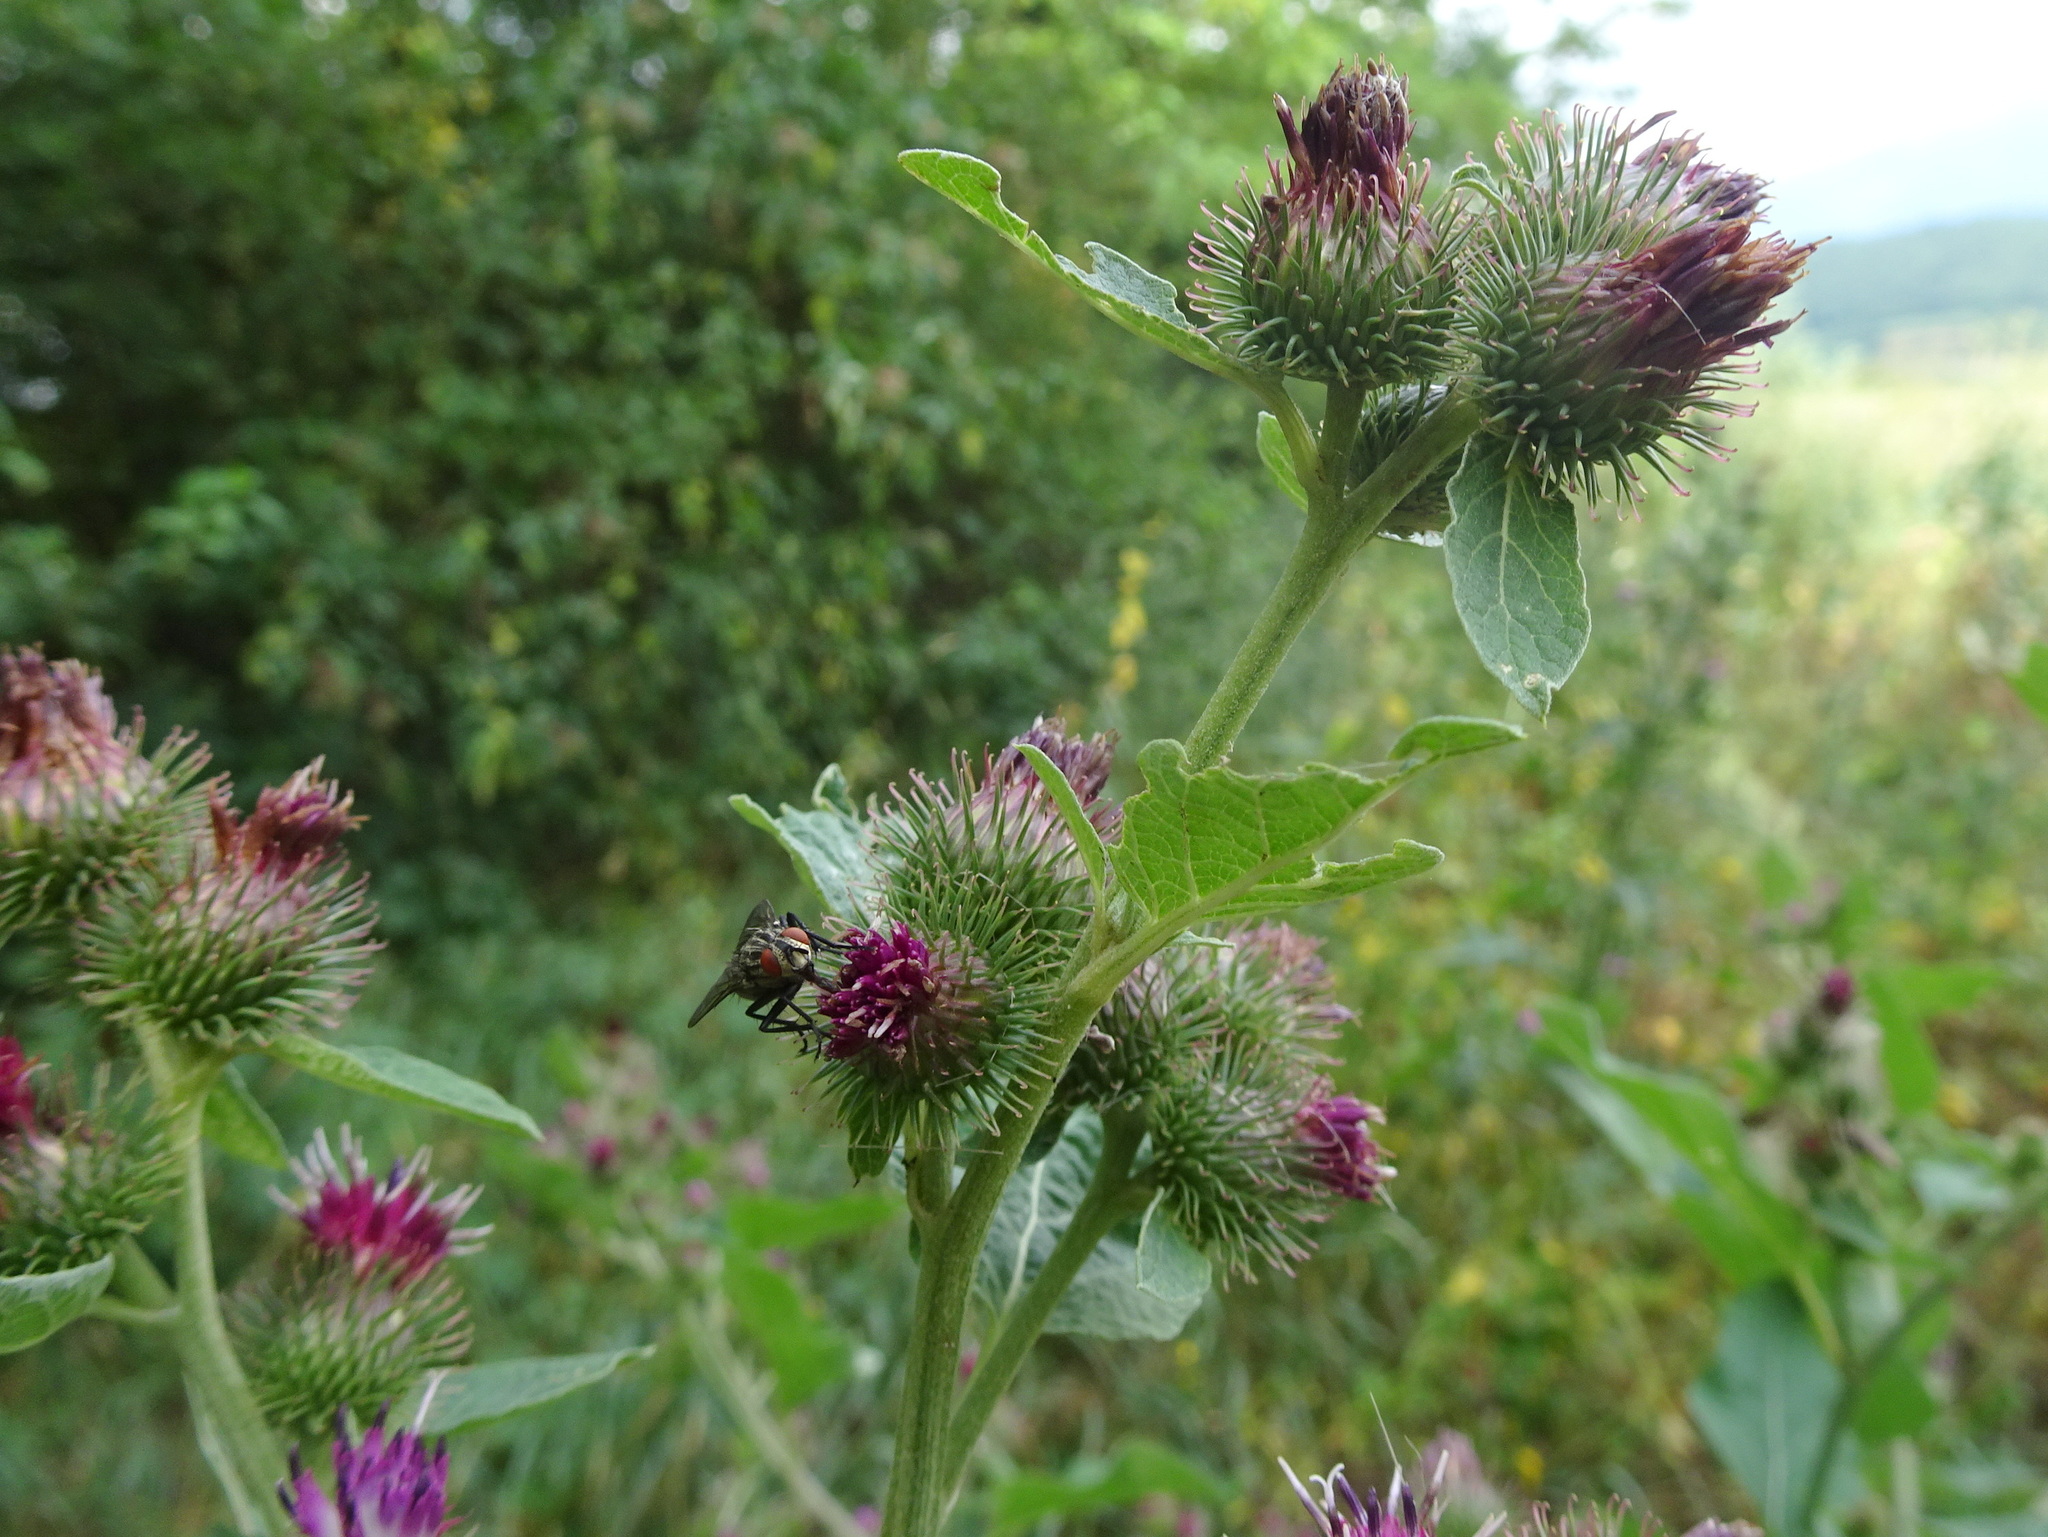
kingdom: Plantae
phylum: Tracheophyta
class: Magnoliopsida
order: Asterales
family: Asteraceae
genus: Arctium
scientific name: Arctium minus
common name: Lesser burdock
